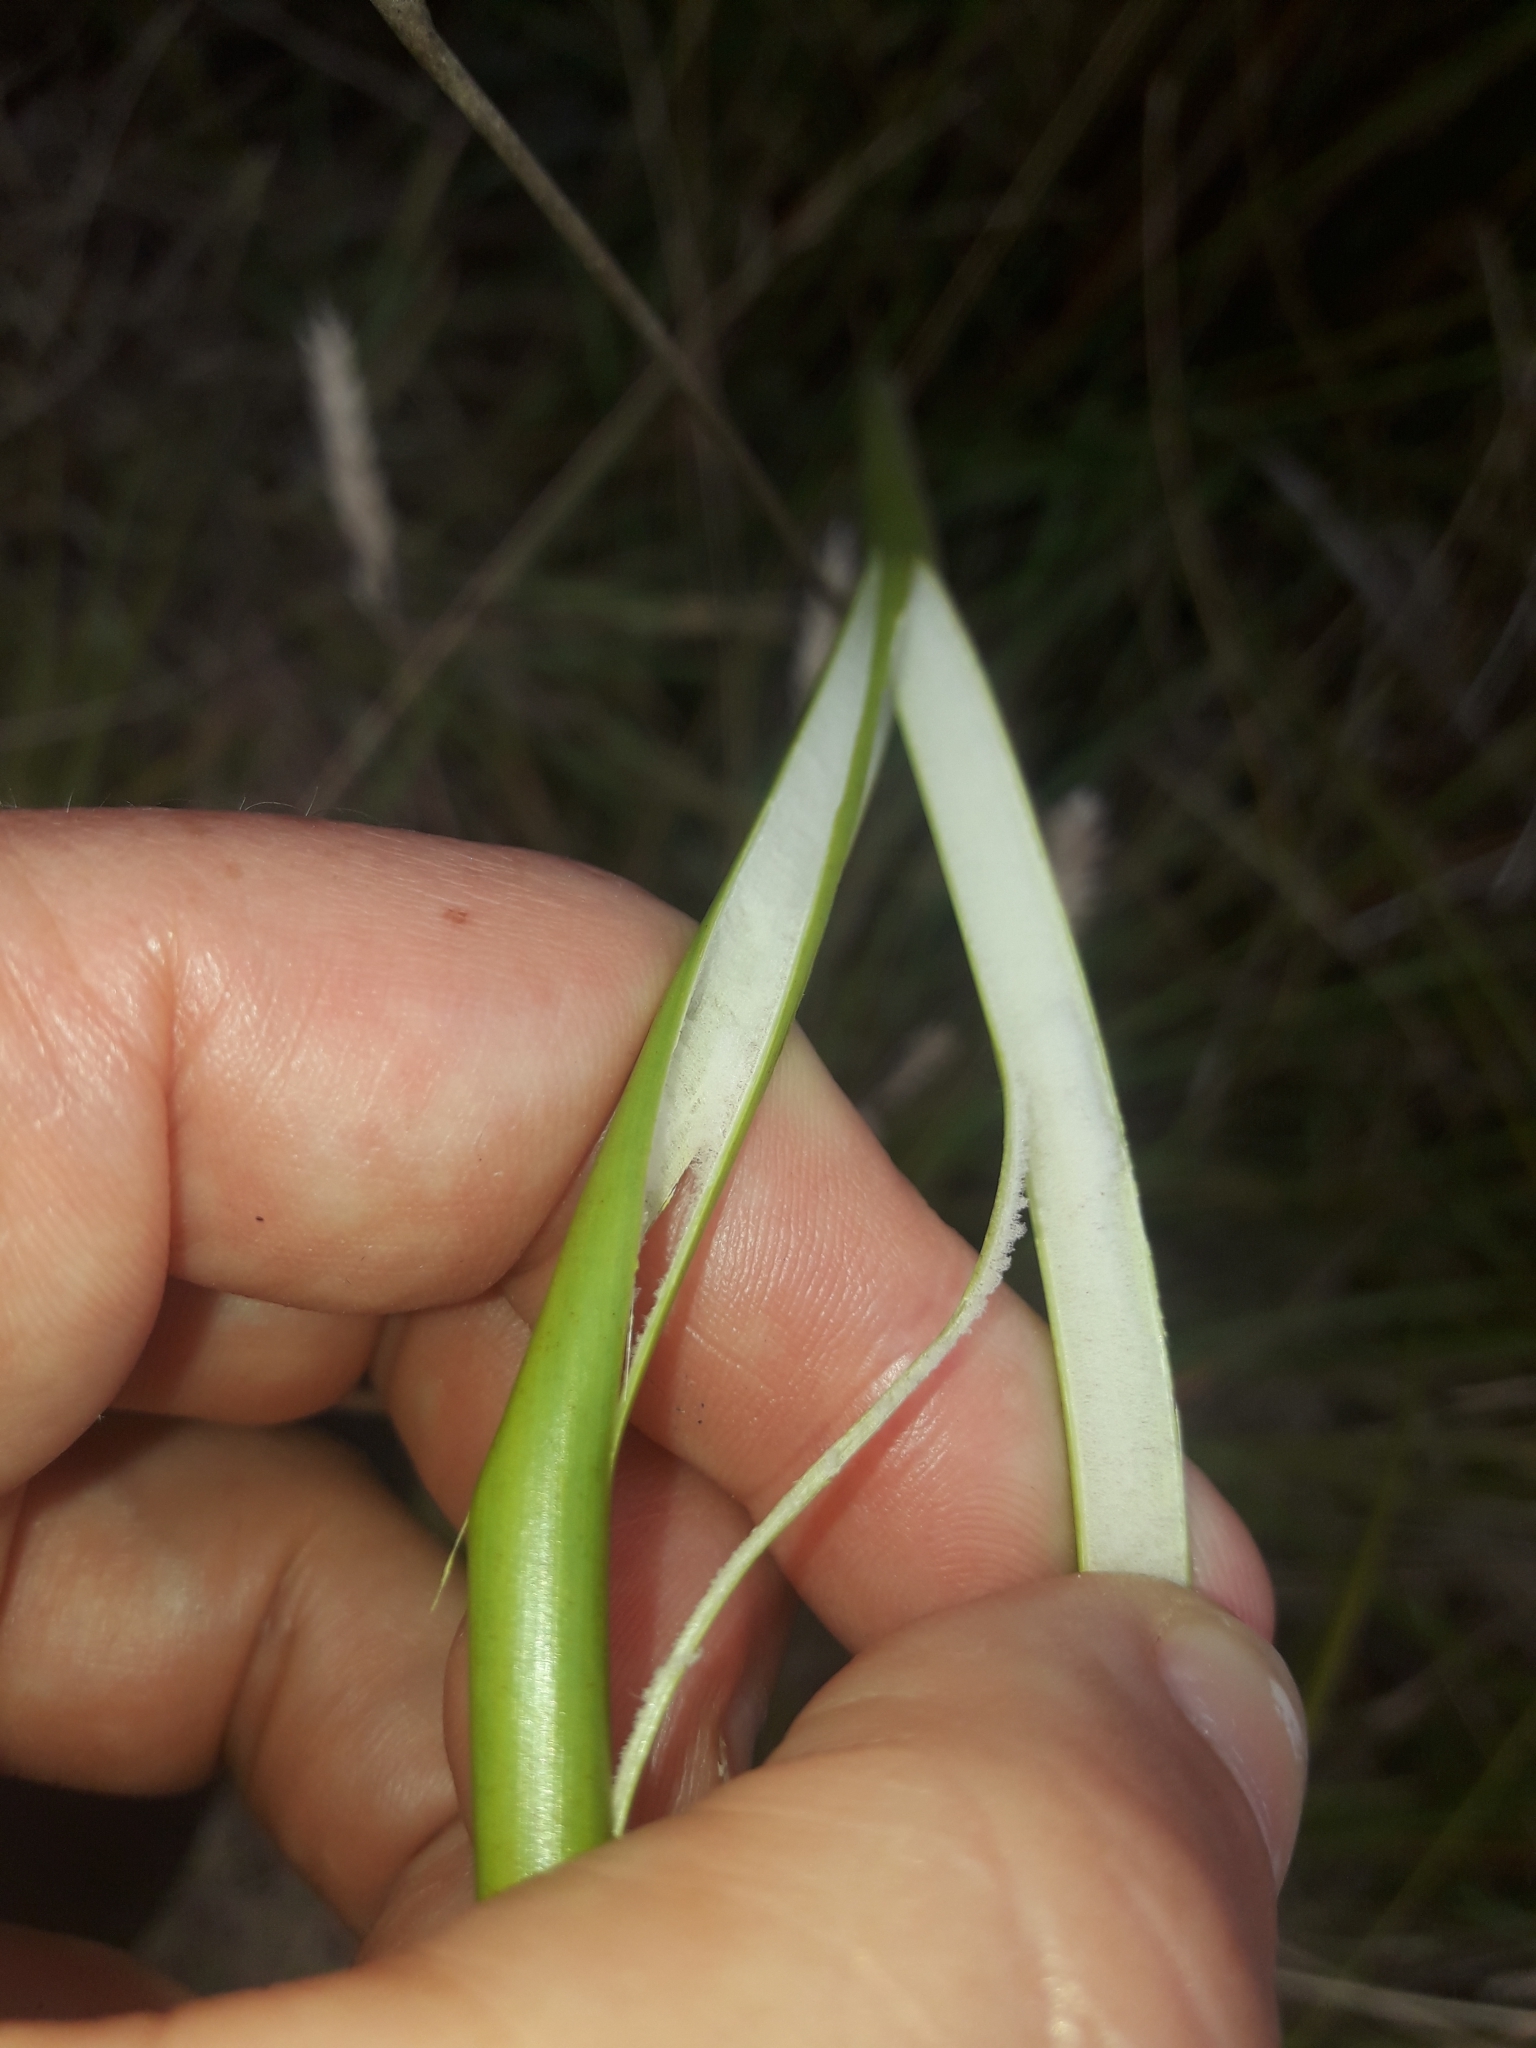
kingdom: Plantae
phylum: Tracheophyta
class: Liliopsida
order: Poales
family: Juncaceae
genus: Juncus
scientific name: Juncus pallidus
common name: Great soft-rush
